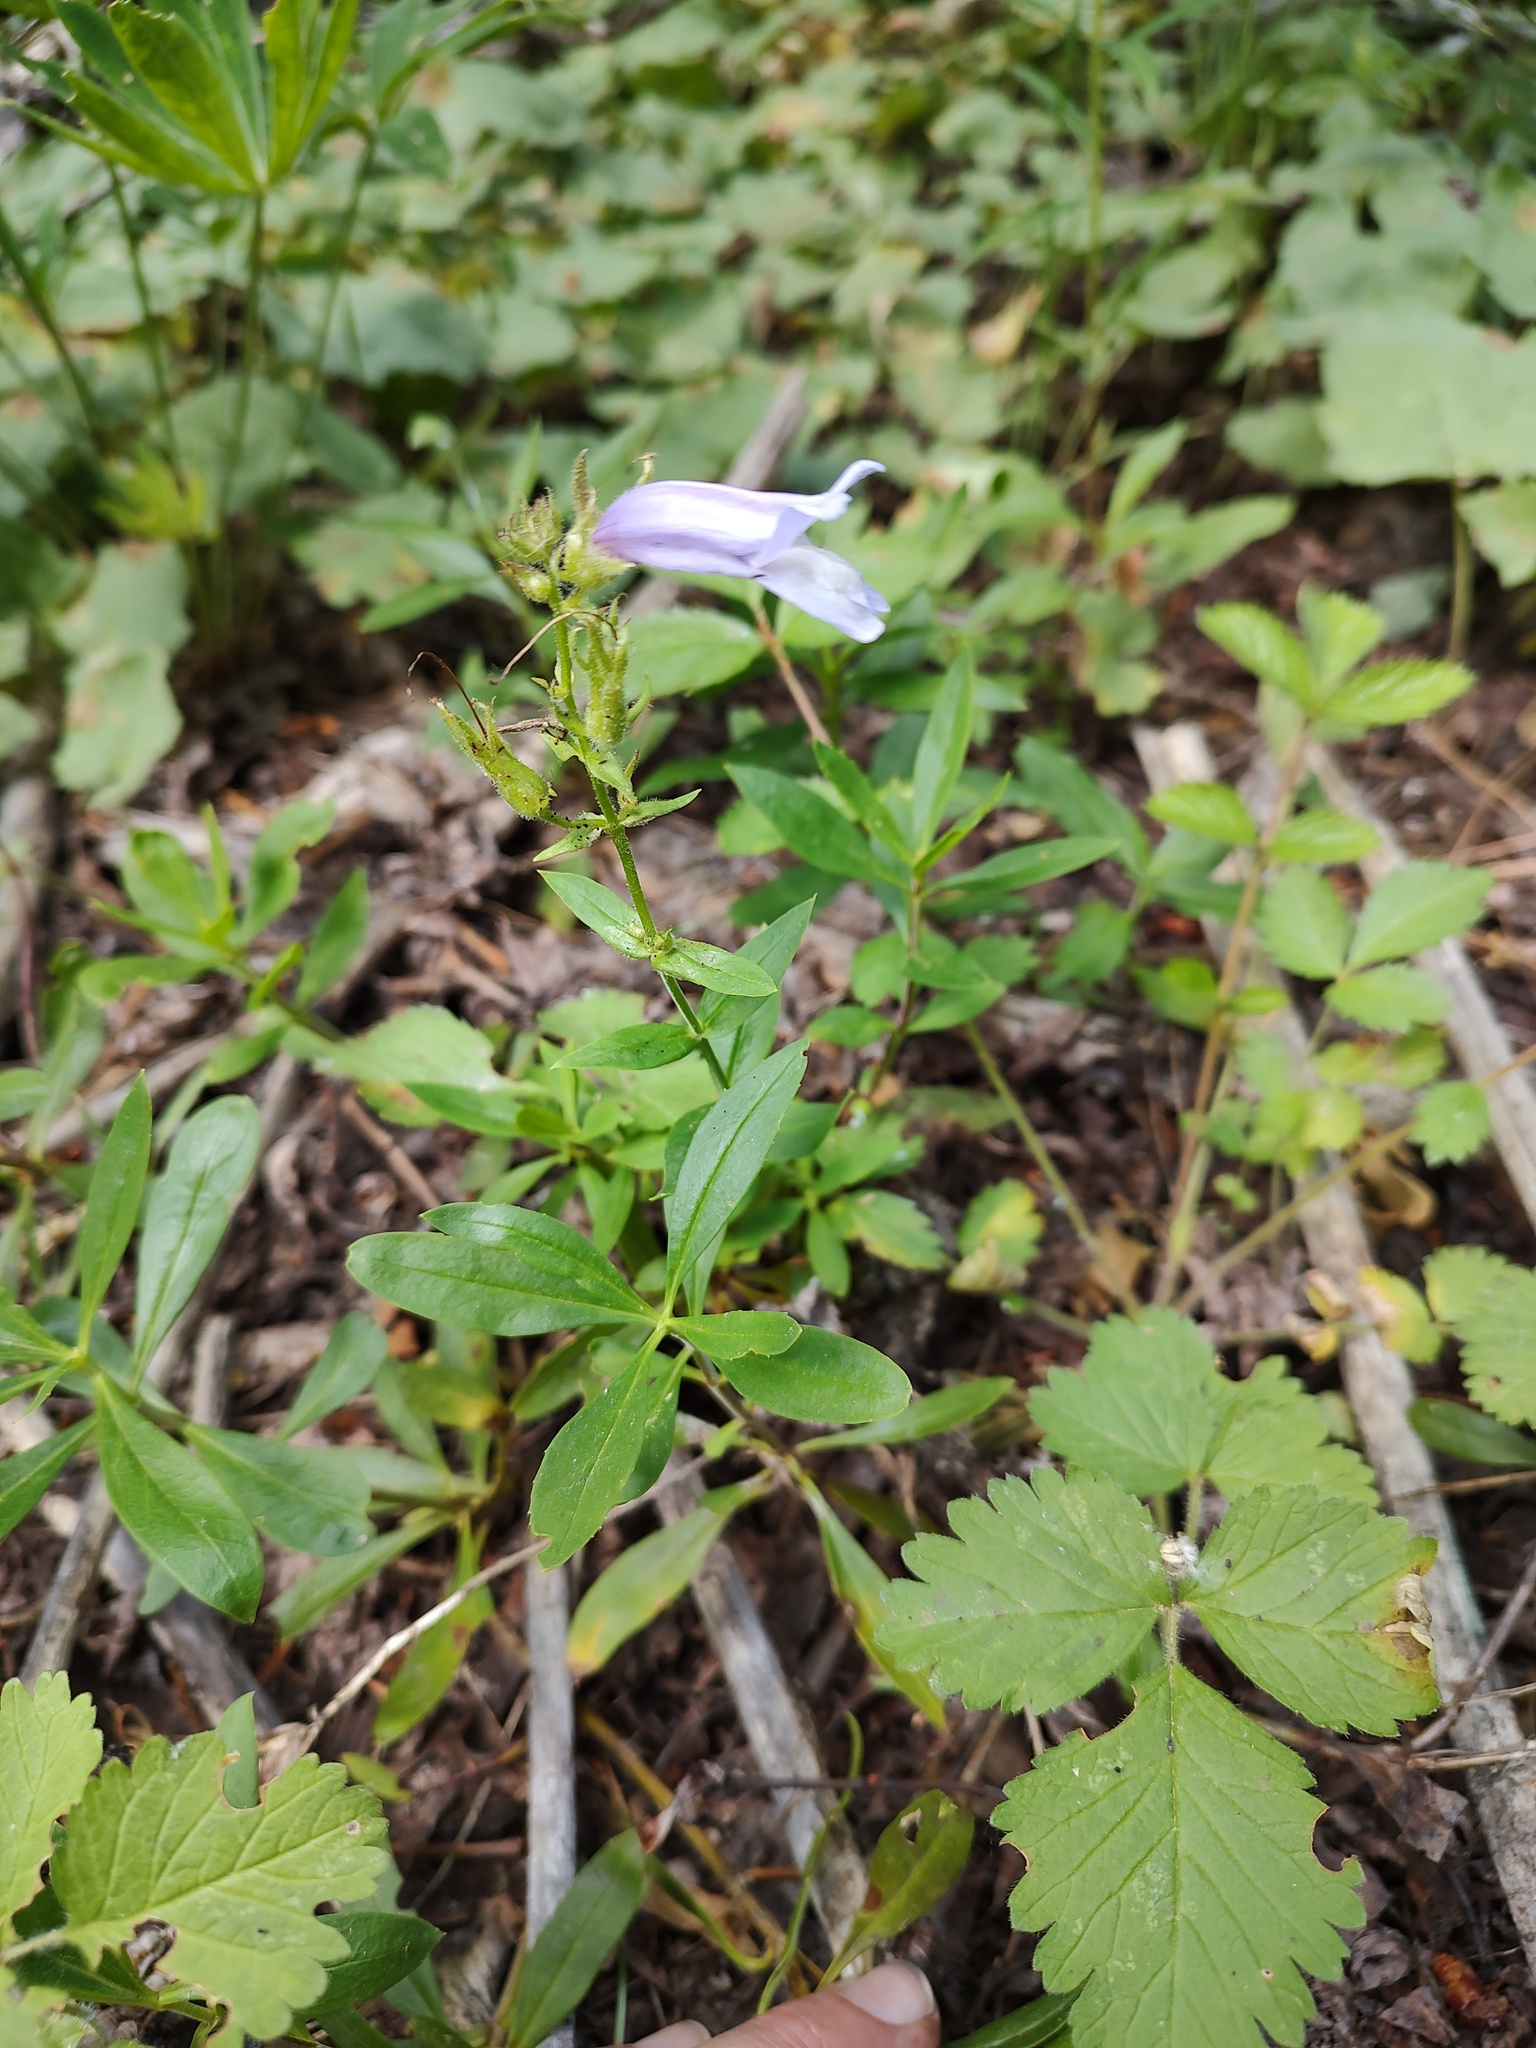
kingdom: Plantae
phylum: Tracheophyta
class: Magnoliopsida
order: Lamiales
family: Plantaginaceae
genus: Penstemon
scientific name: Penstemon fruticosus
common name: Bush penstemon
